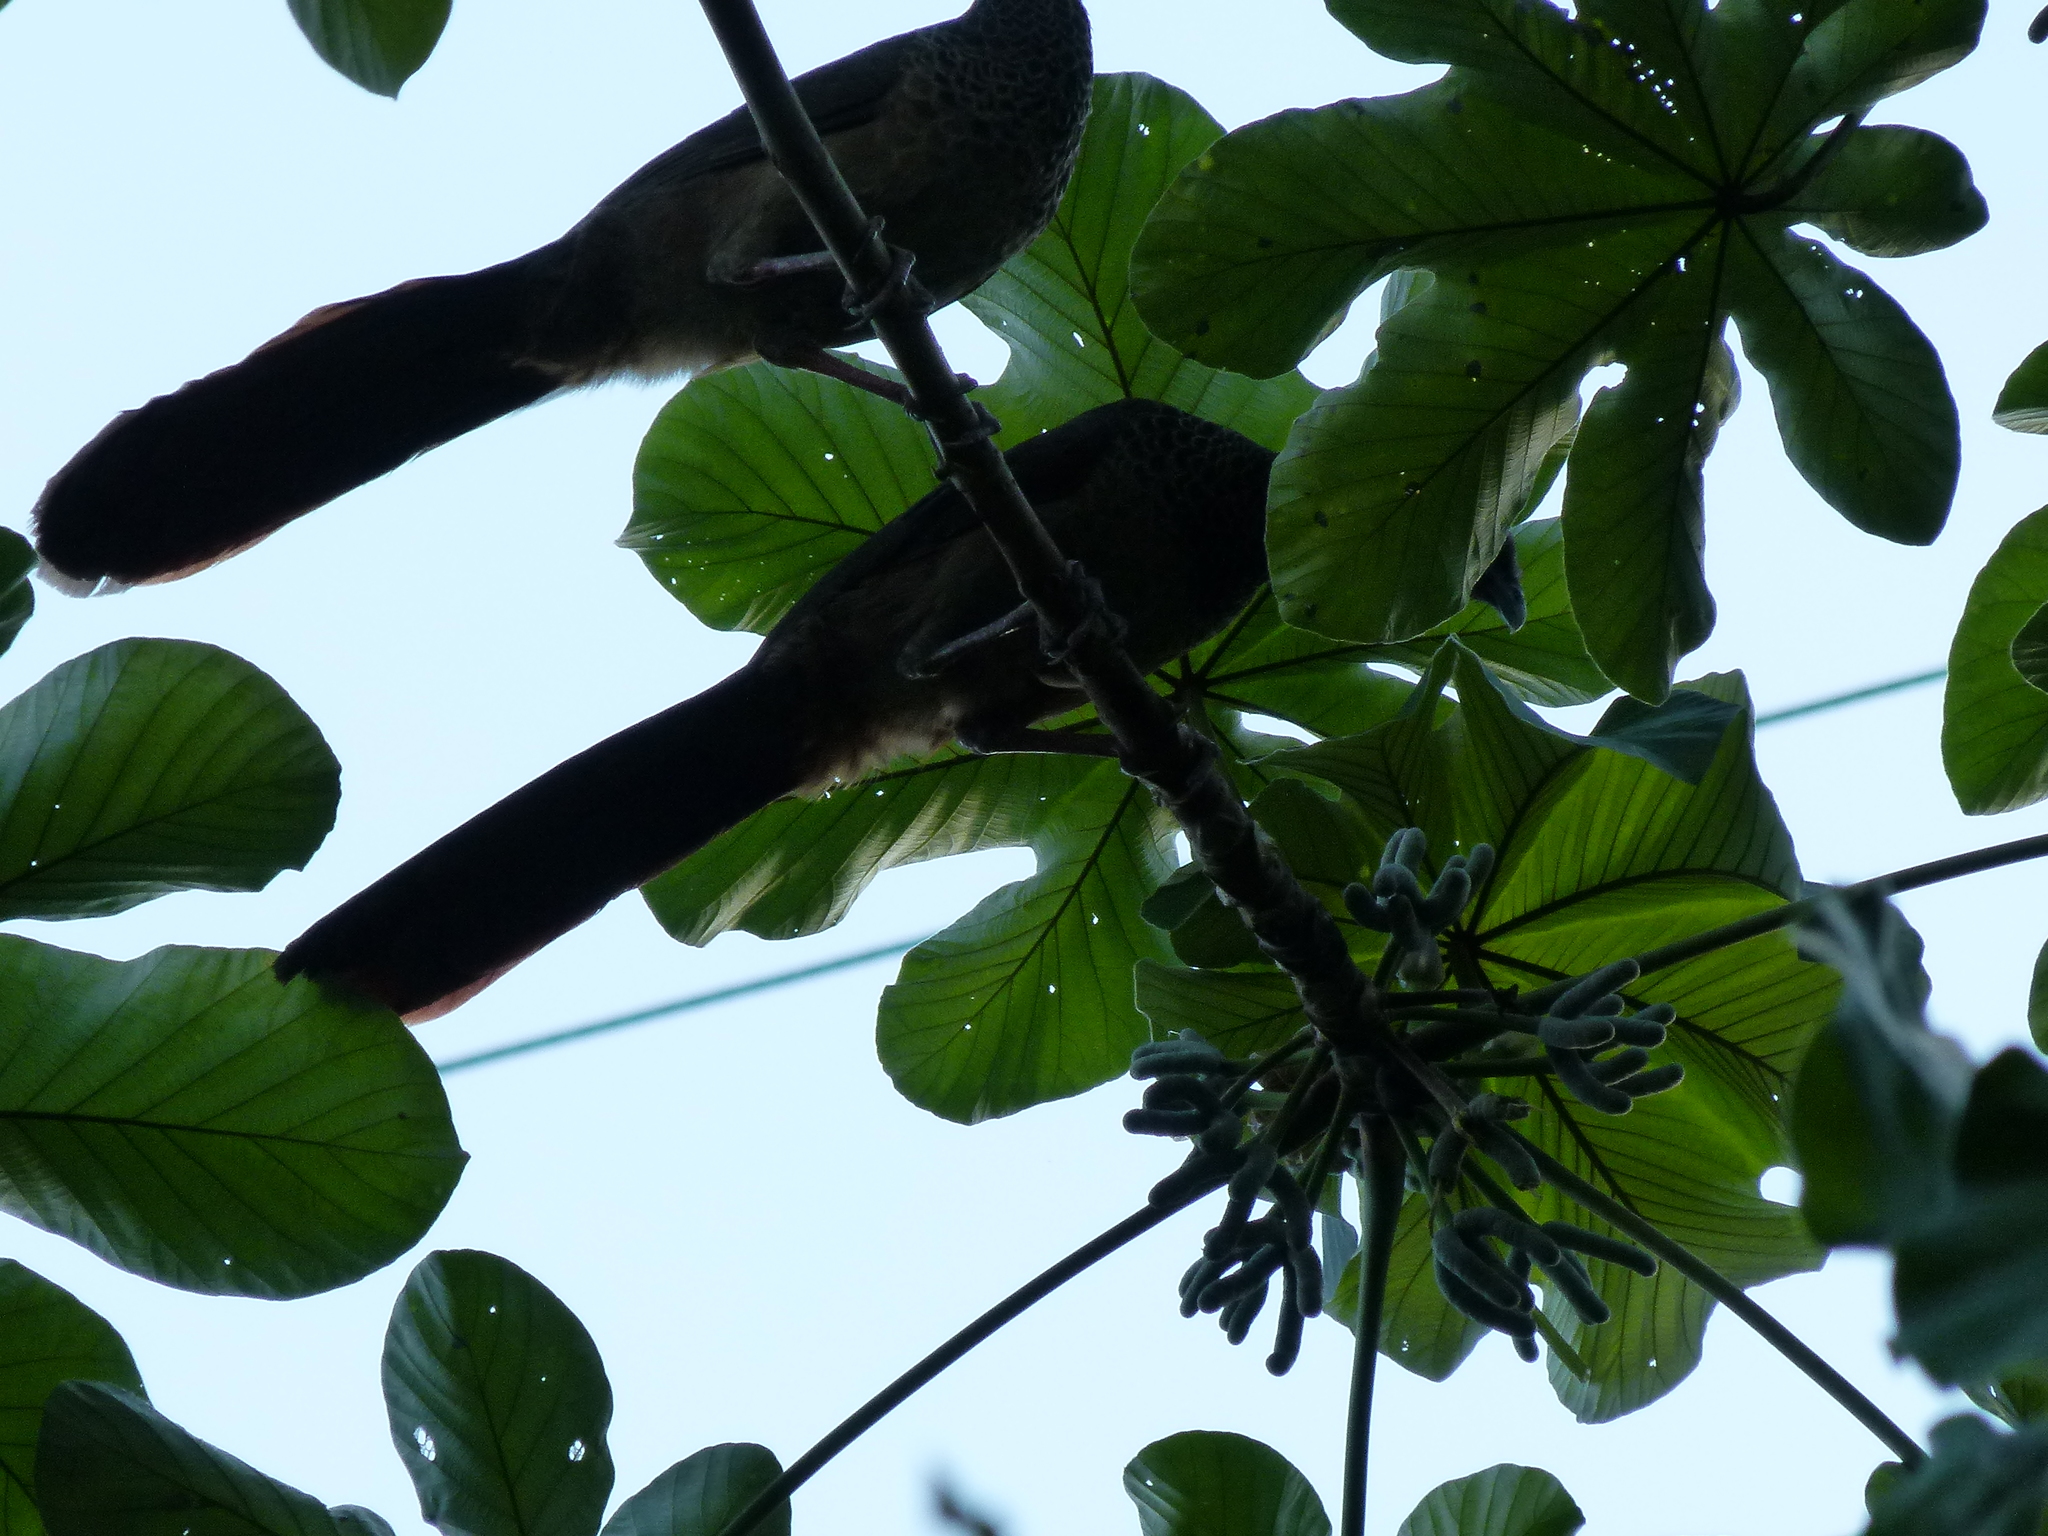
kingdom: Animalia
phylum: Chordata
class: Aves
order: Galliformes
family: Cracidae
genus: Ortalis
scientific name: Ortalis columbiana
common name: Colombian chachalaca
